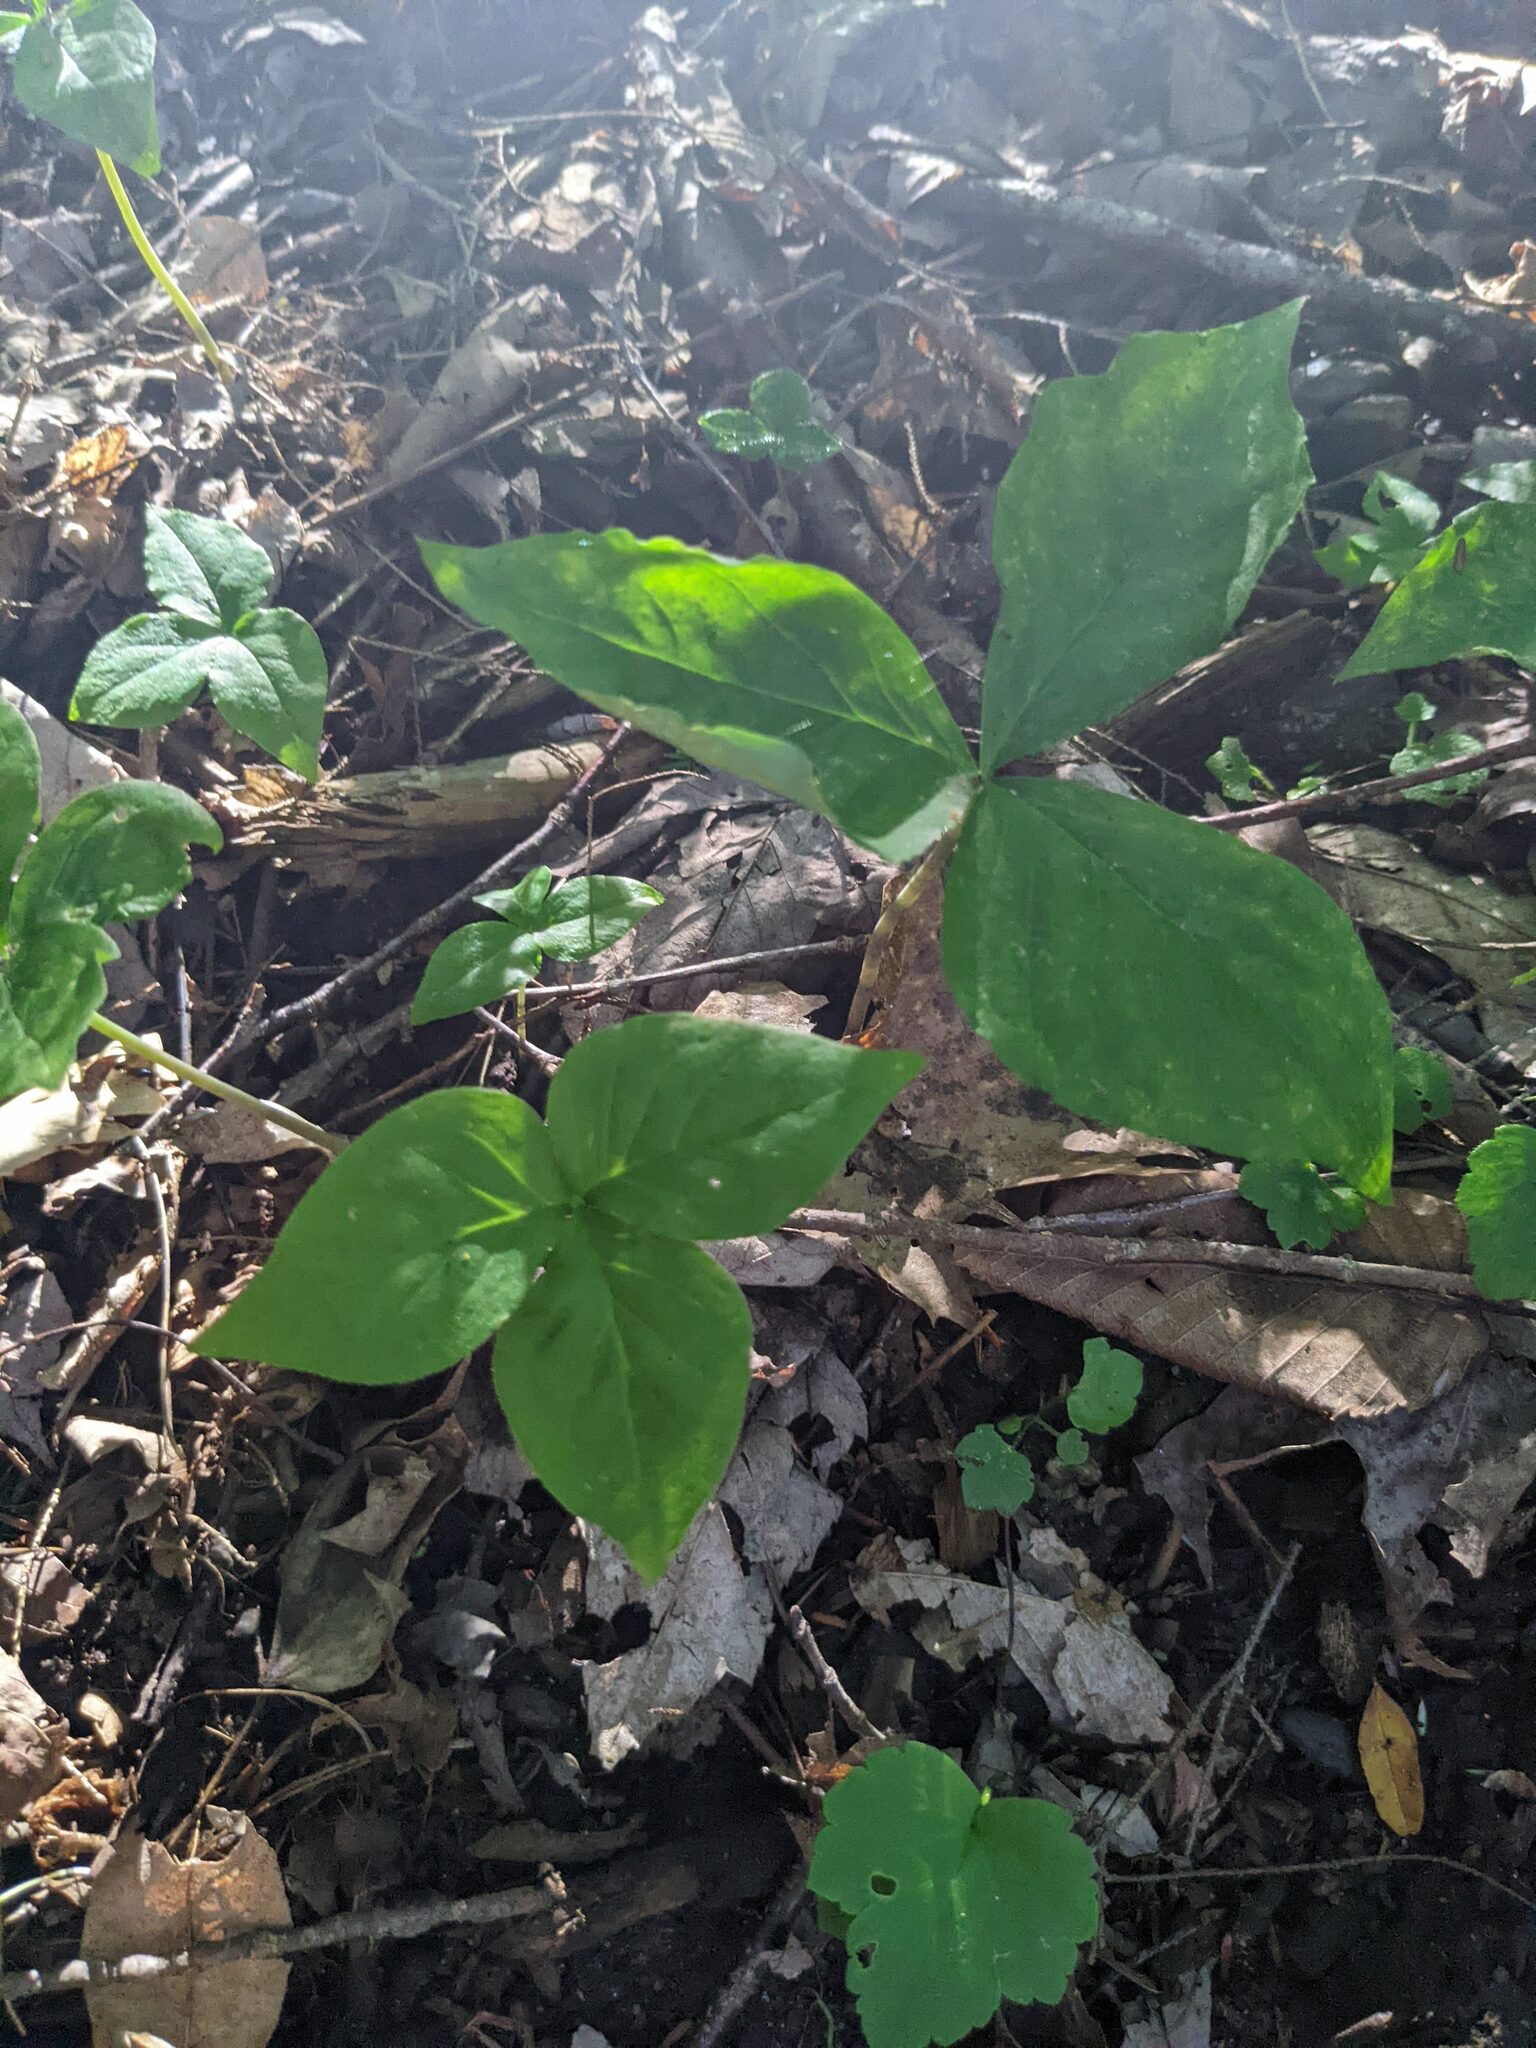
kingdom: Plantae
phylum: Tracheophyta
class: Liliopsida
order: Alismatales
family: Araceae
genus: Arisaema
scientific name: Arisaema triphyllum
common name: Jack-in-the-pulpit
